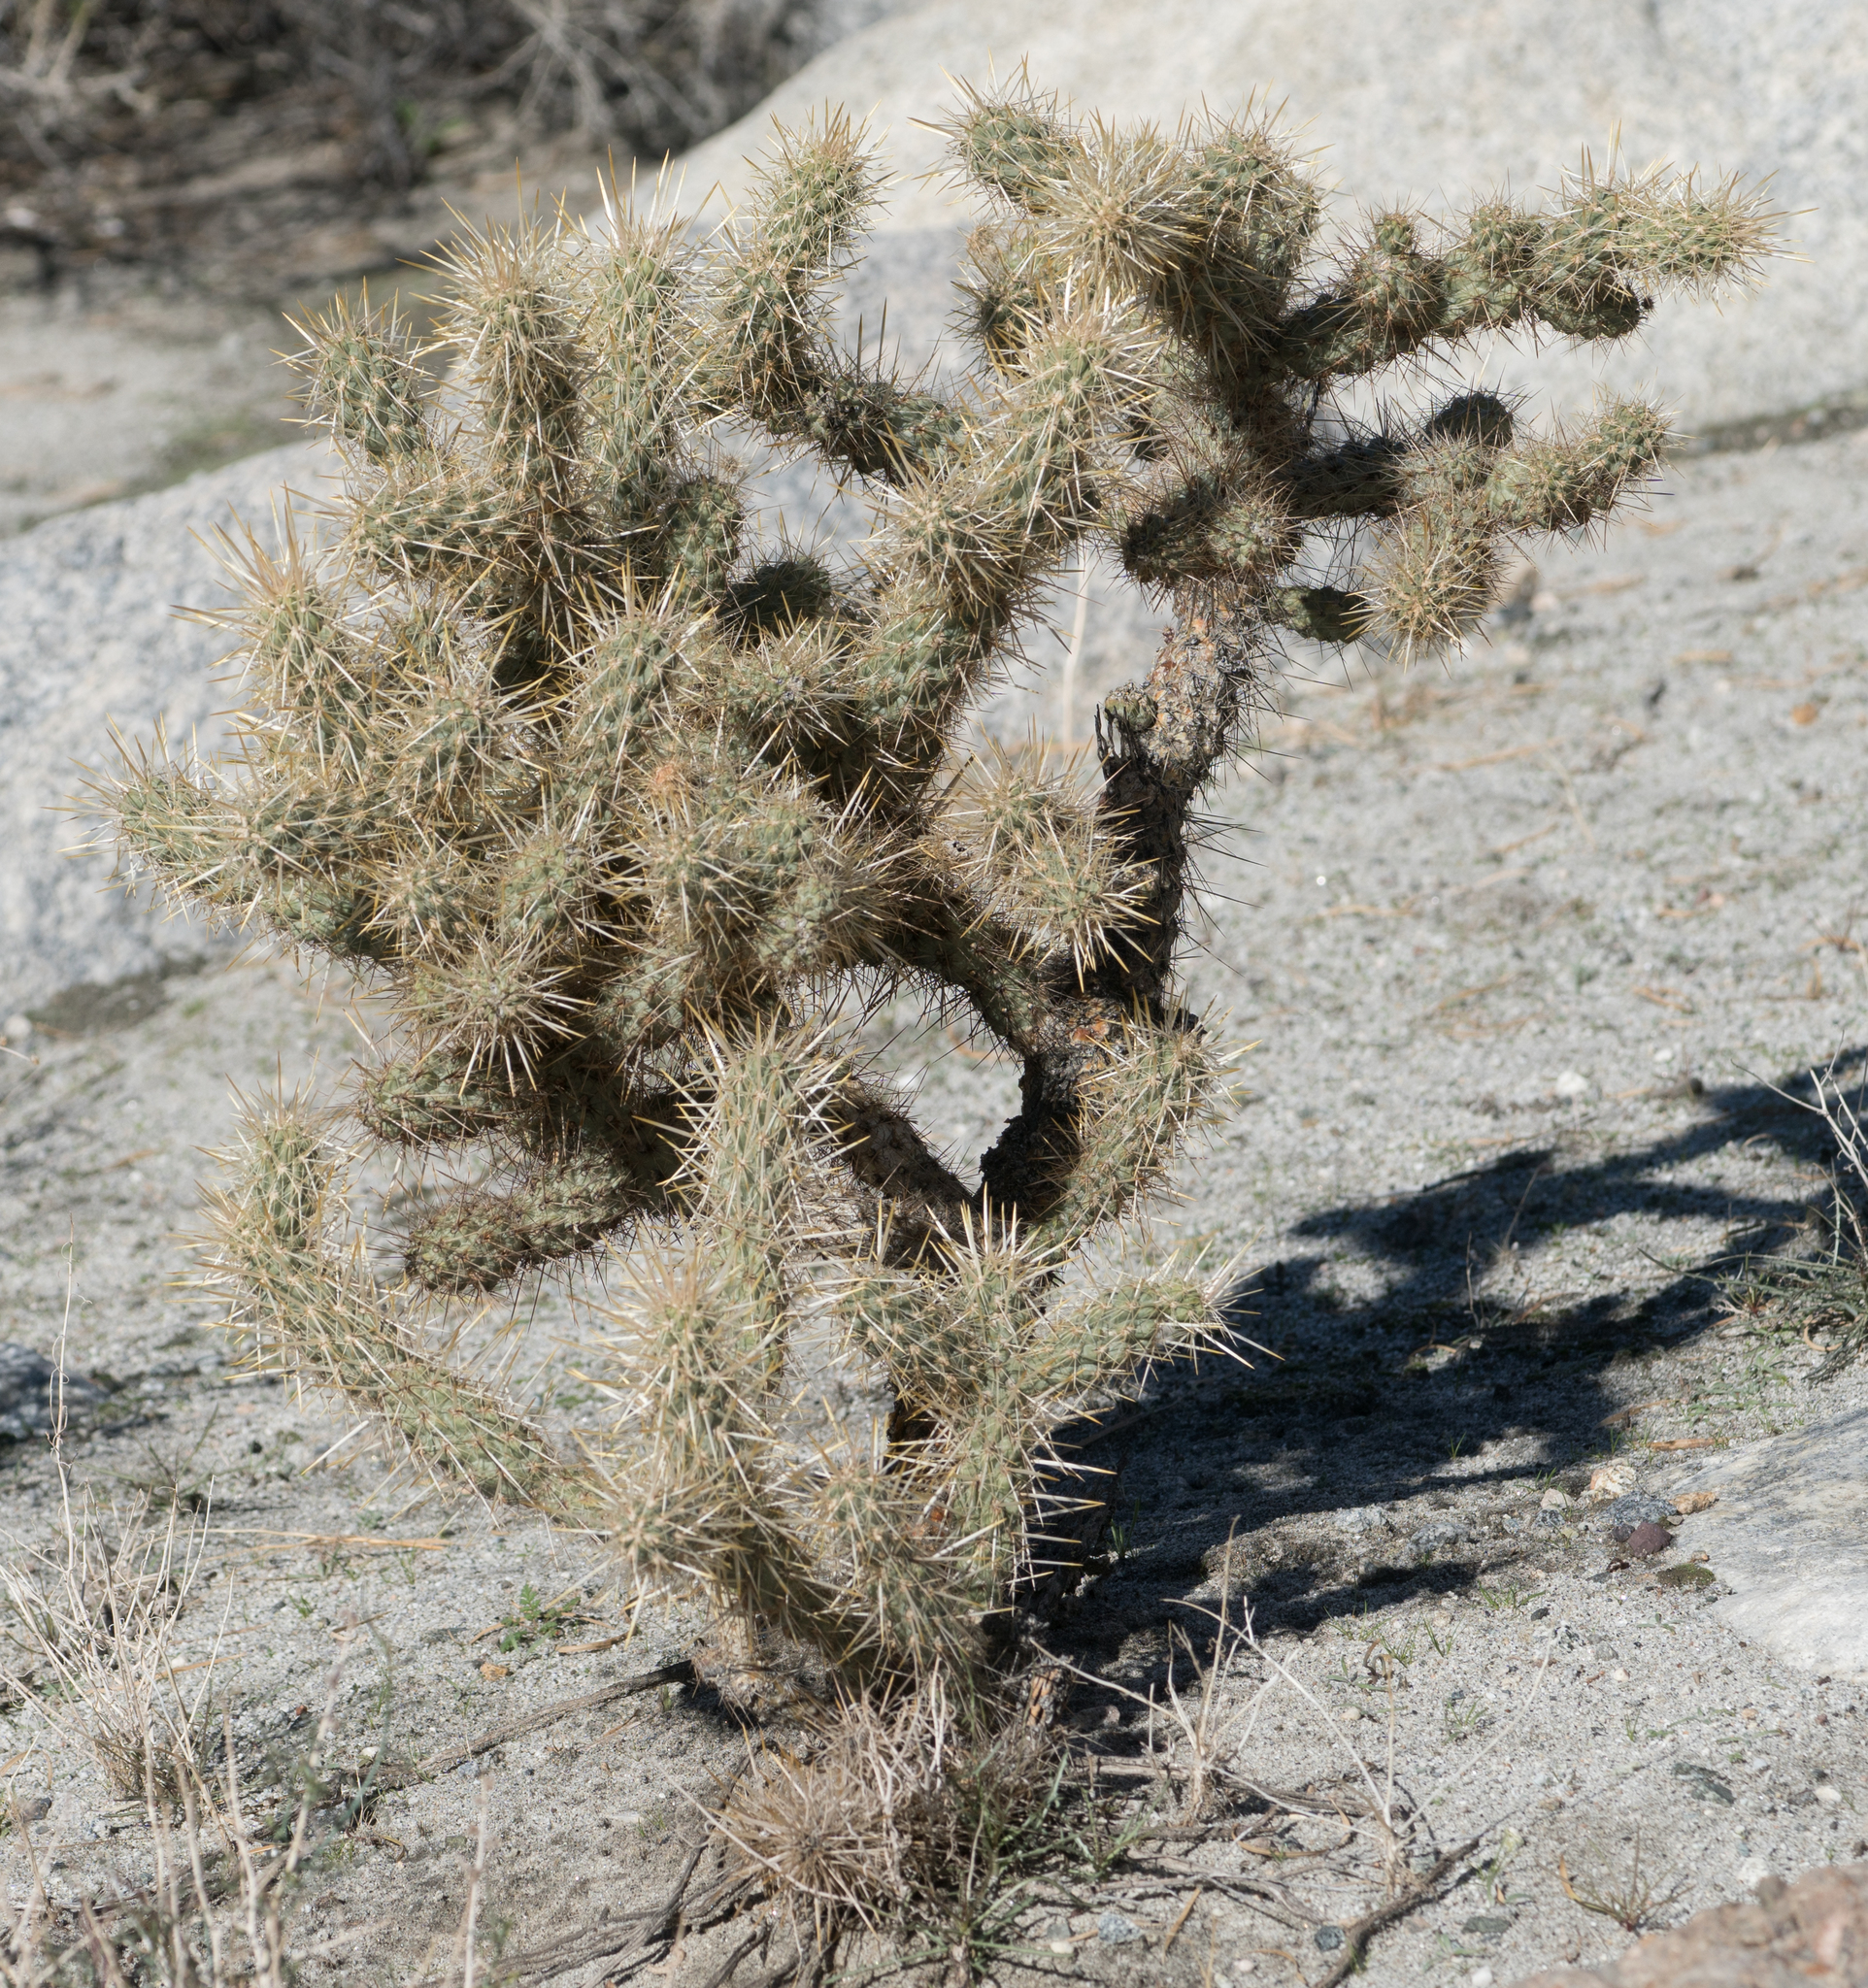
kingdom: Plantae
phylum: Tracheophyta
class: Magnoliopsida
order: Caryophyllales
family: Cactaceae
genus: Cylindropuntia
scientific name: Cylindropuntia echinocarpa
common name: Ground cholla
